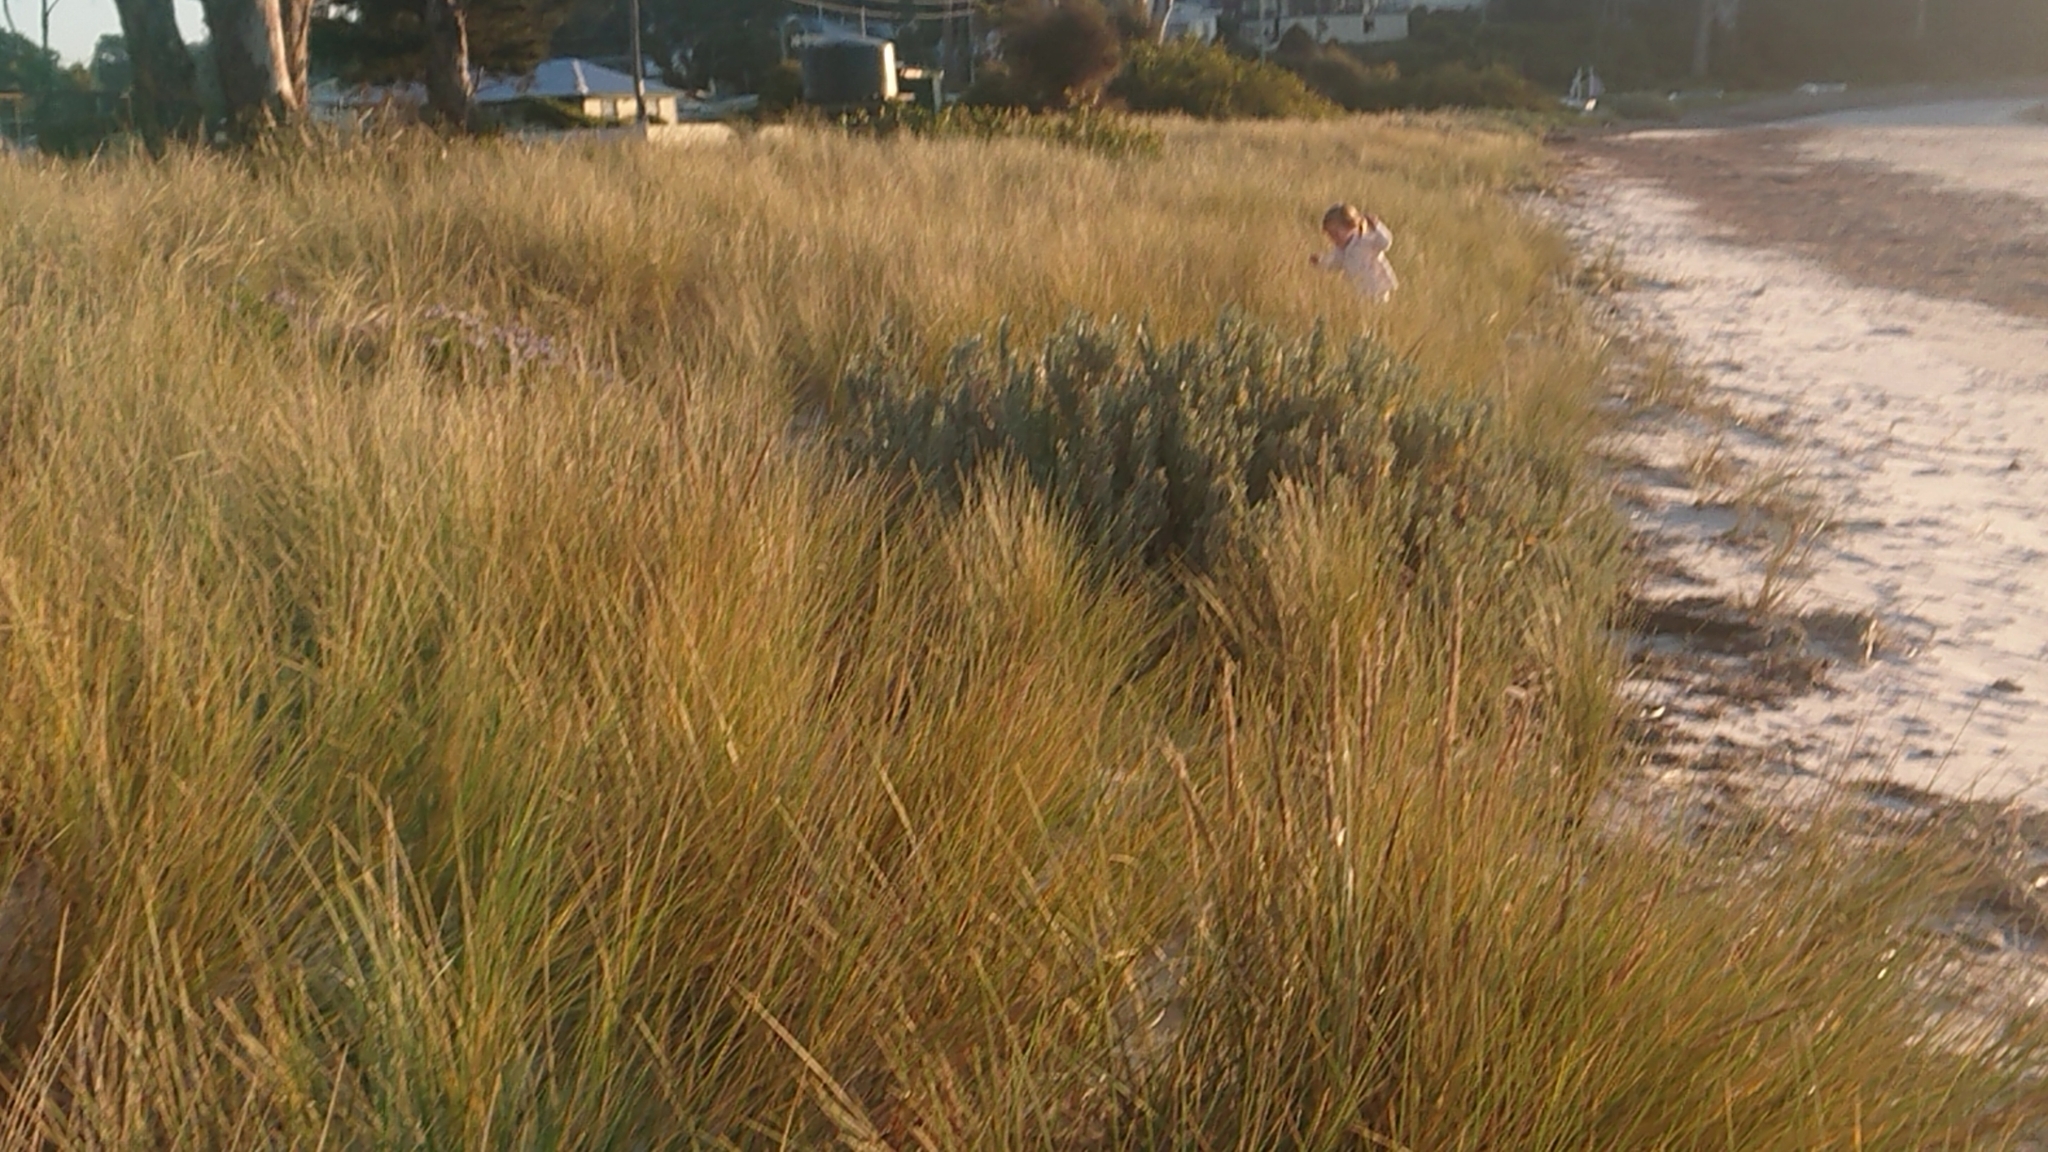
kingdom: Plantae
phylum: Tracheophyta
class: Liliopsida
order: Poales
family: Poaceae
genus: Calamagrostis
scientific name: Calamagrostis arenaria
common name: European beachgrass
